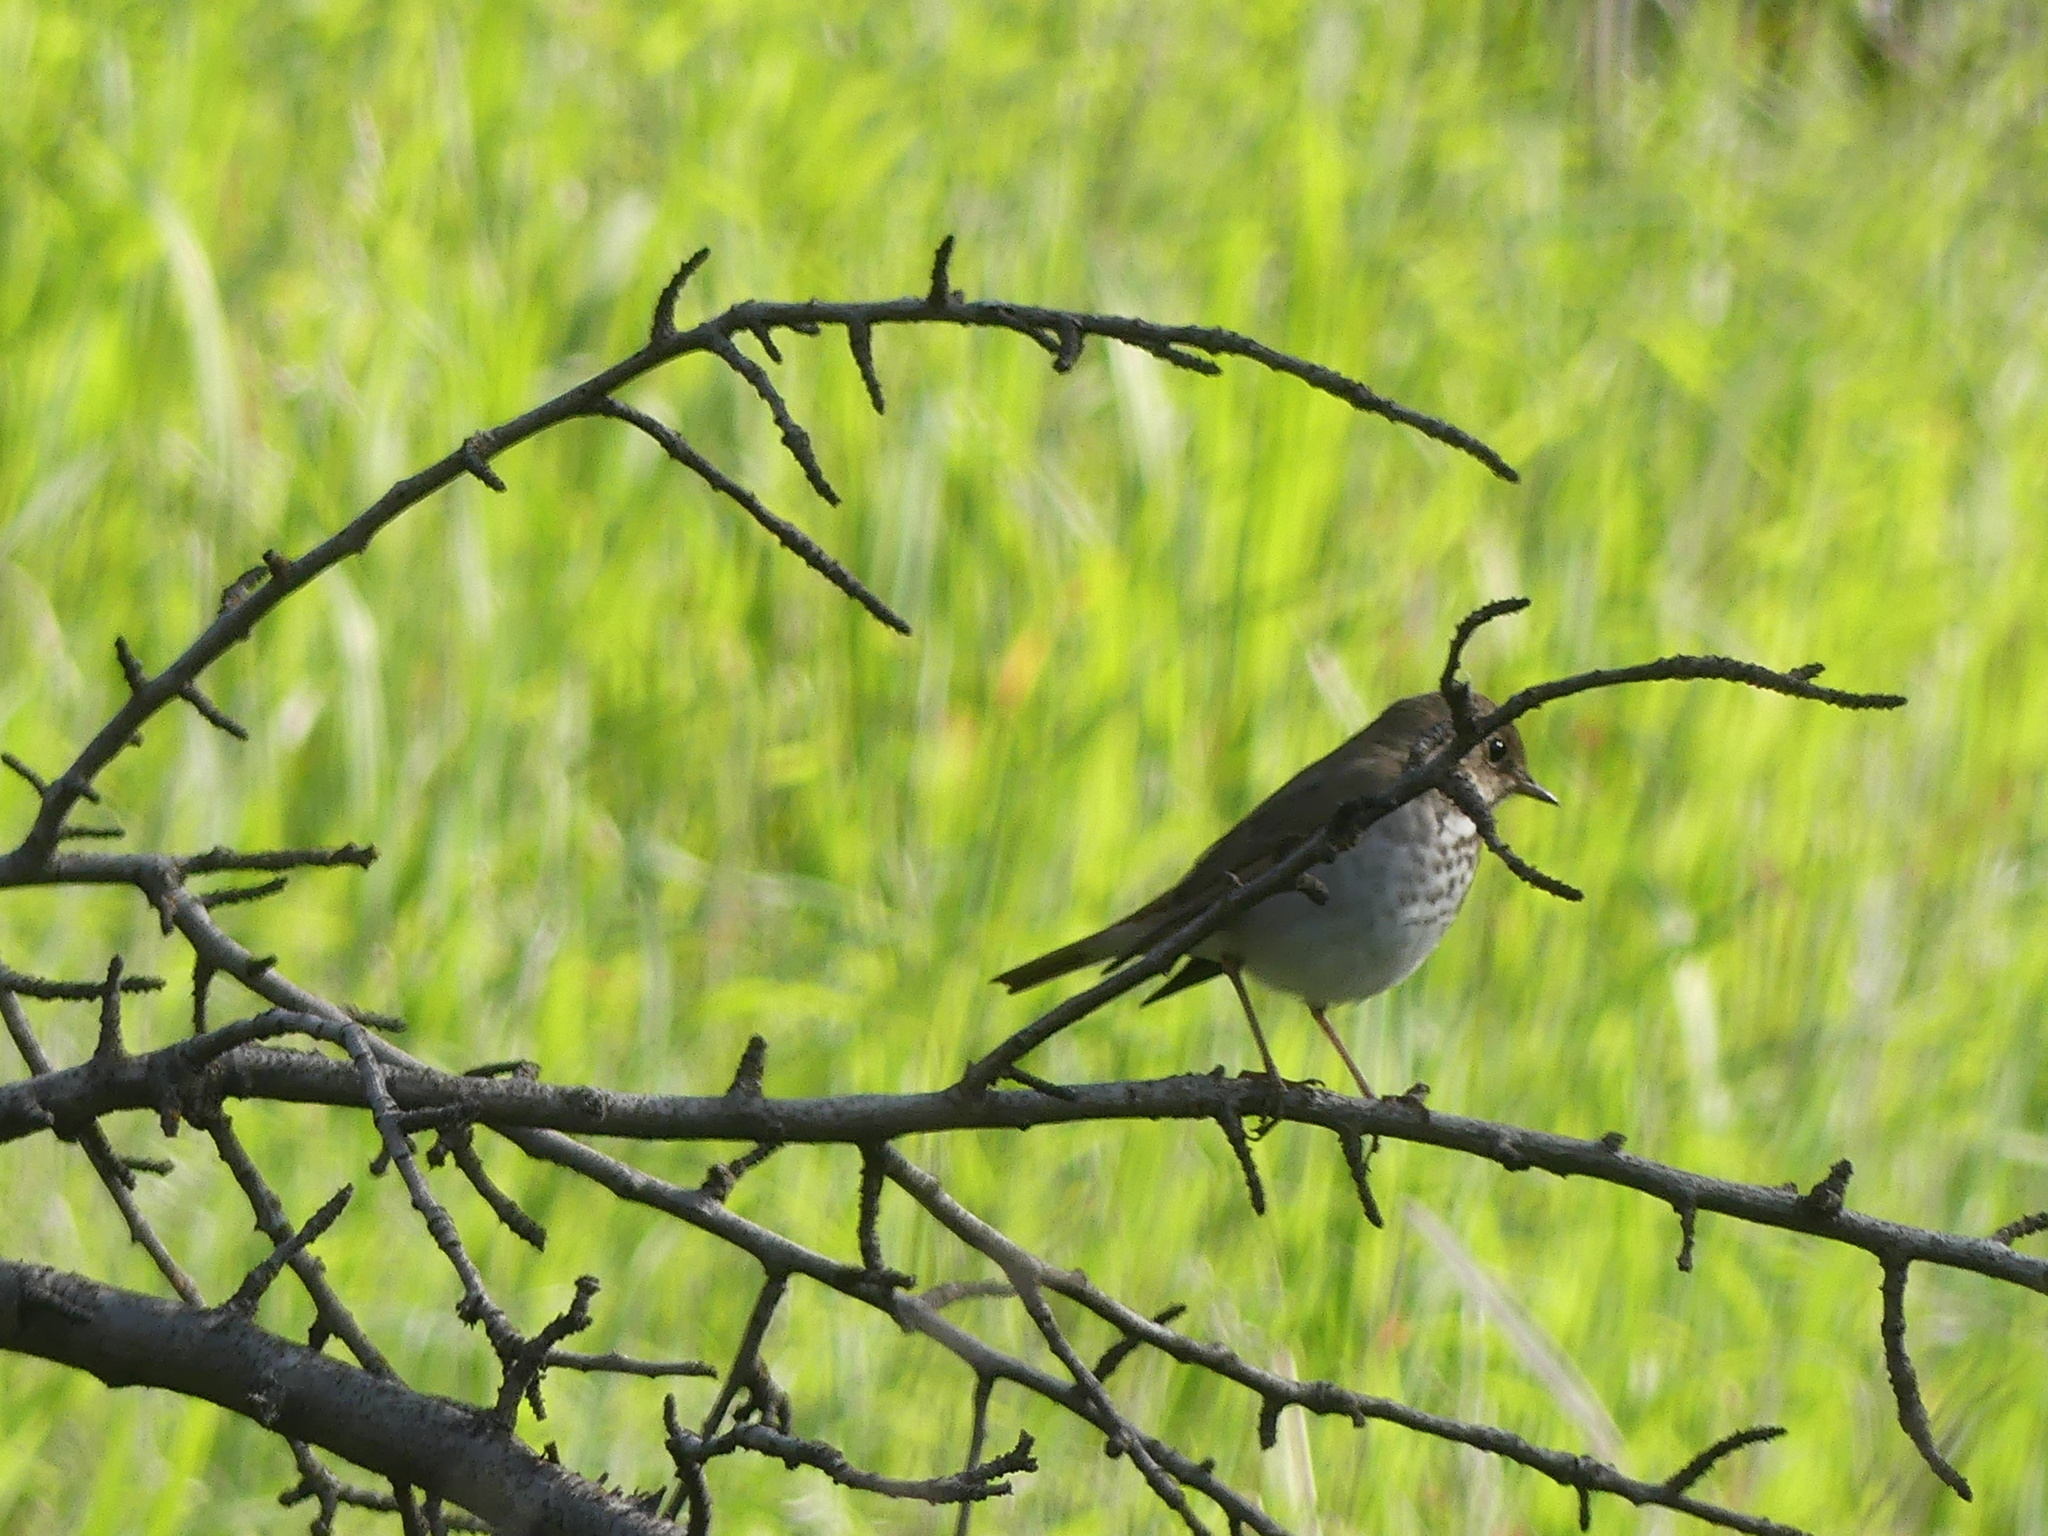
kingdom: Animalia
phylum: Chordata
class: Aves
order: Passeriformes
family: Turdidae
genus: Catharus
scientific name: Catharus guttatus
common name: Hermit thrush
